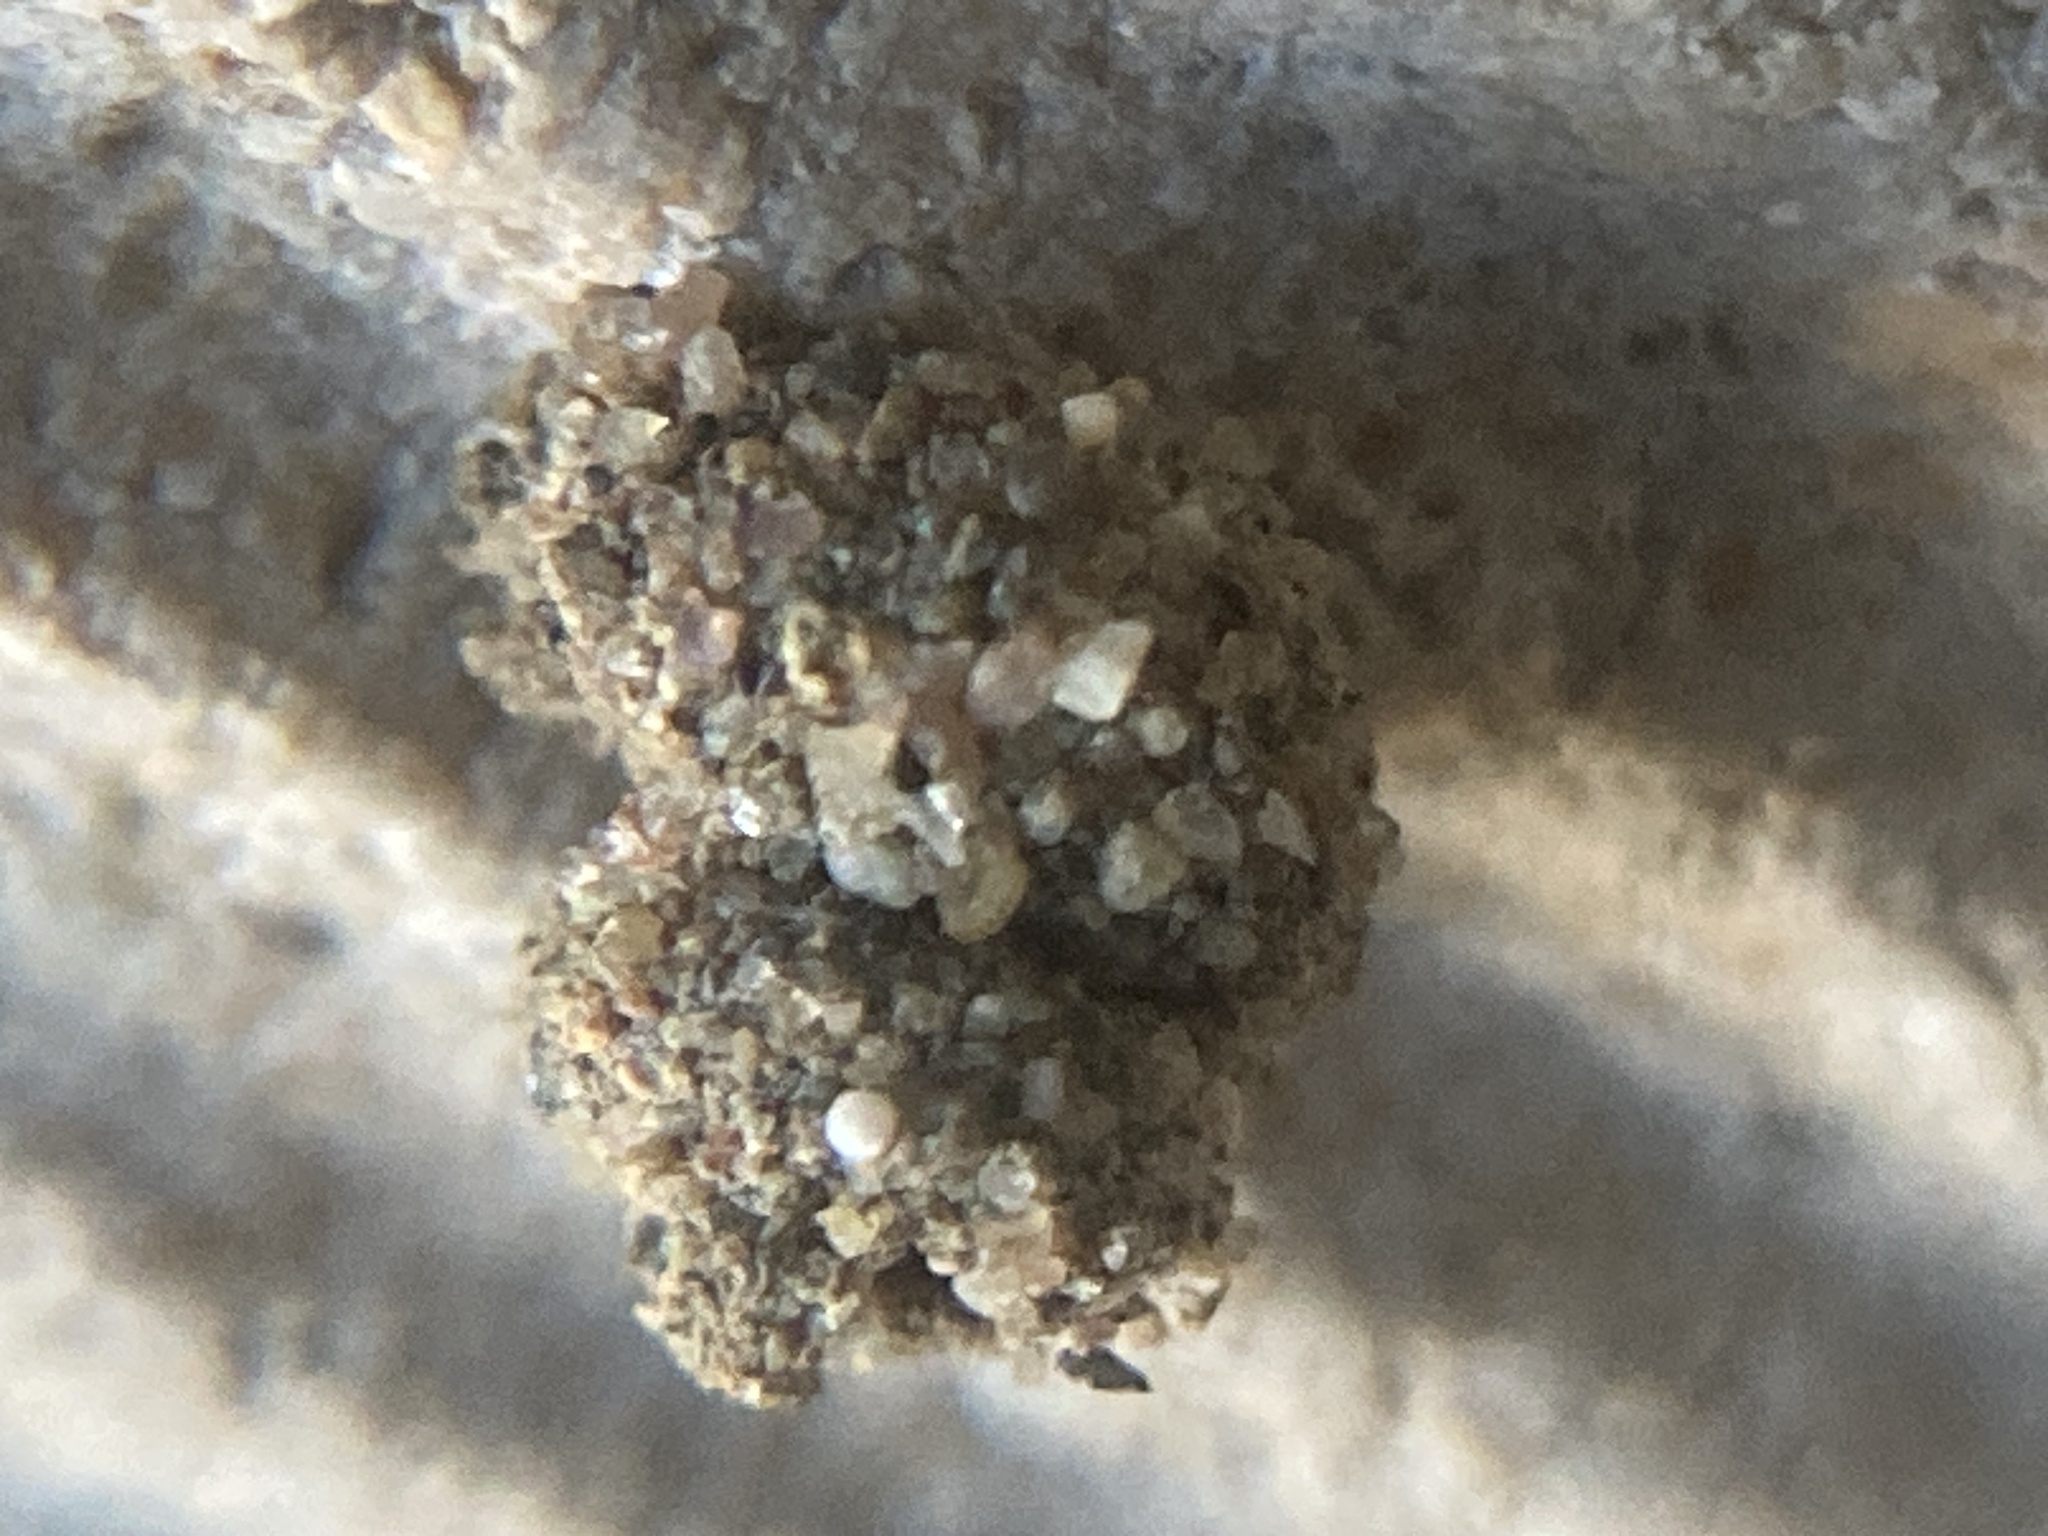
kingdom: Animalia
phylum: Arthropoda
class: Insecta
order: Lepidoptera
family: Psychidae
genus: Apterona
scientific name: Apterona helicoidella
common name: Moth
